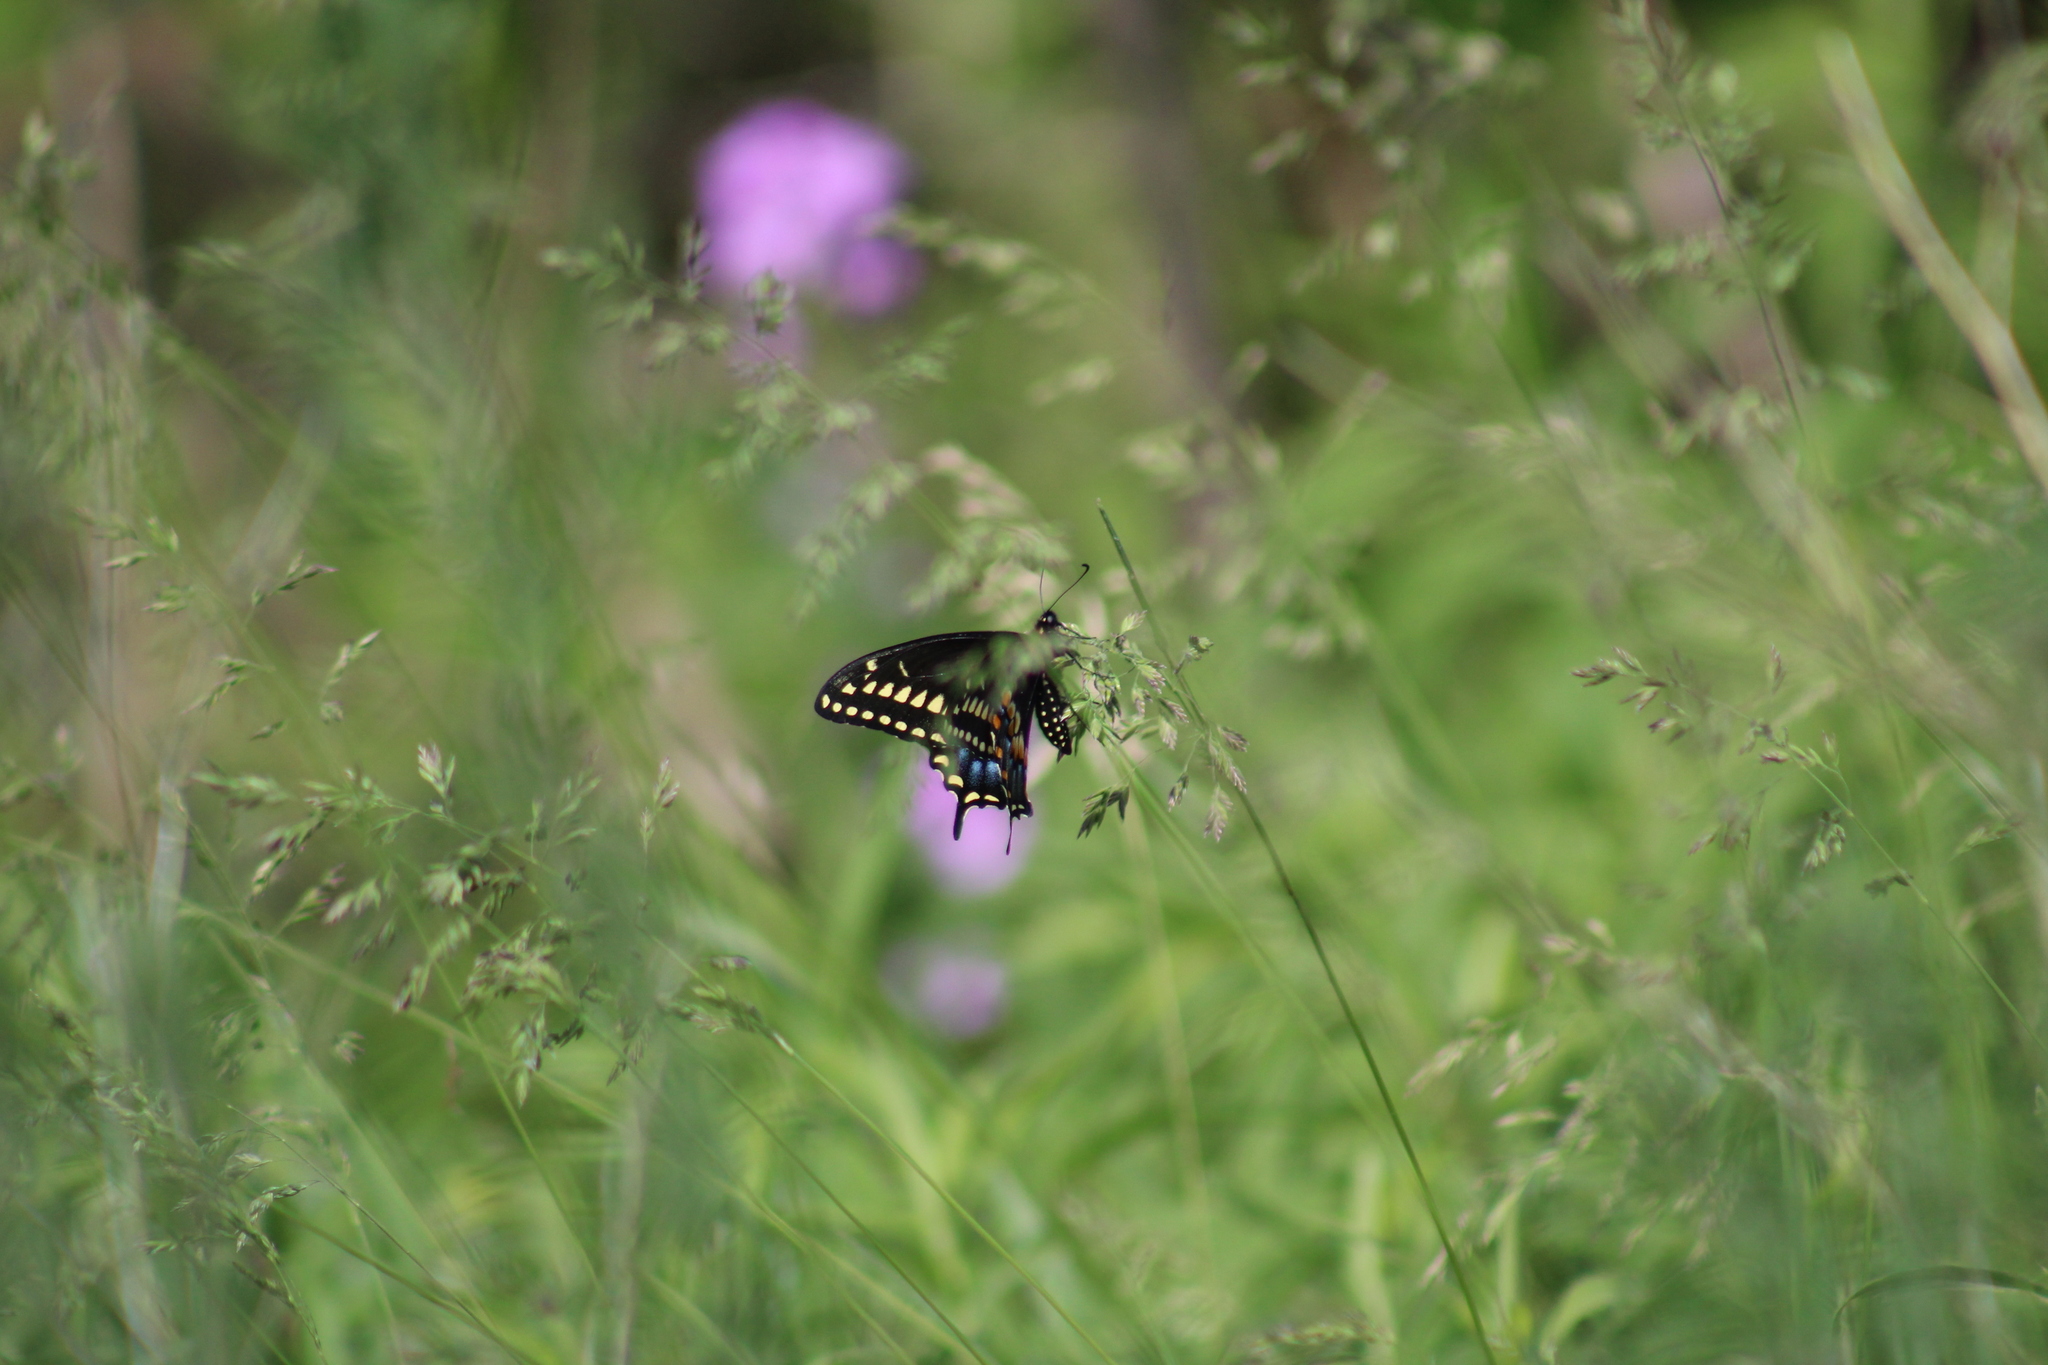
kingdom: Animalia
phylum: Arthropoda
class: Insecta
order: Lepidoptera
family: Papilionidae
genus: Papilio
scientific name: Papilio polyxenes
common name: Black swallowtail
